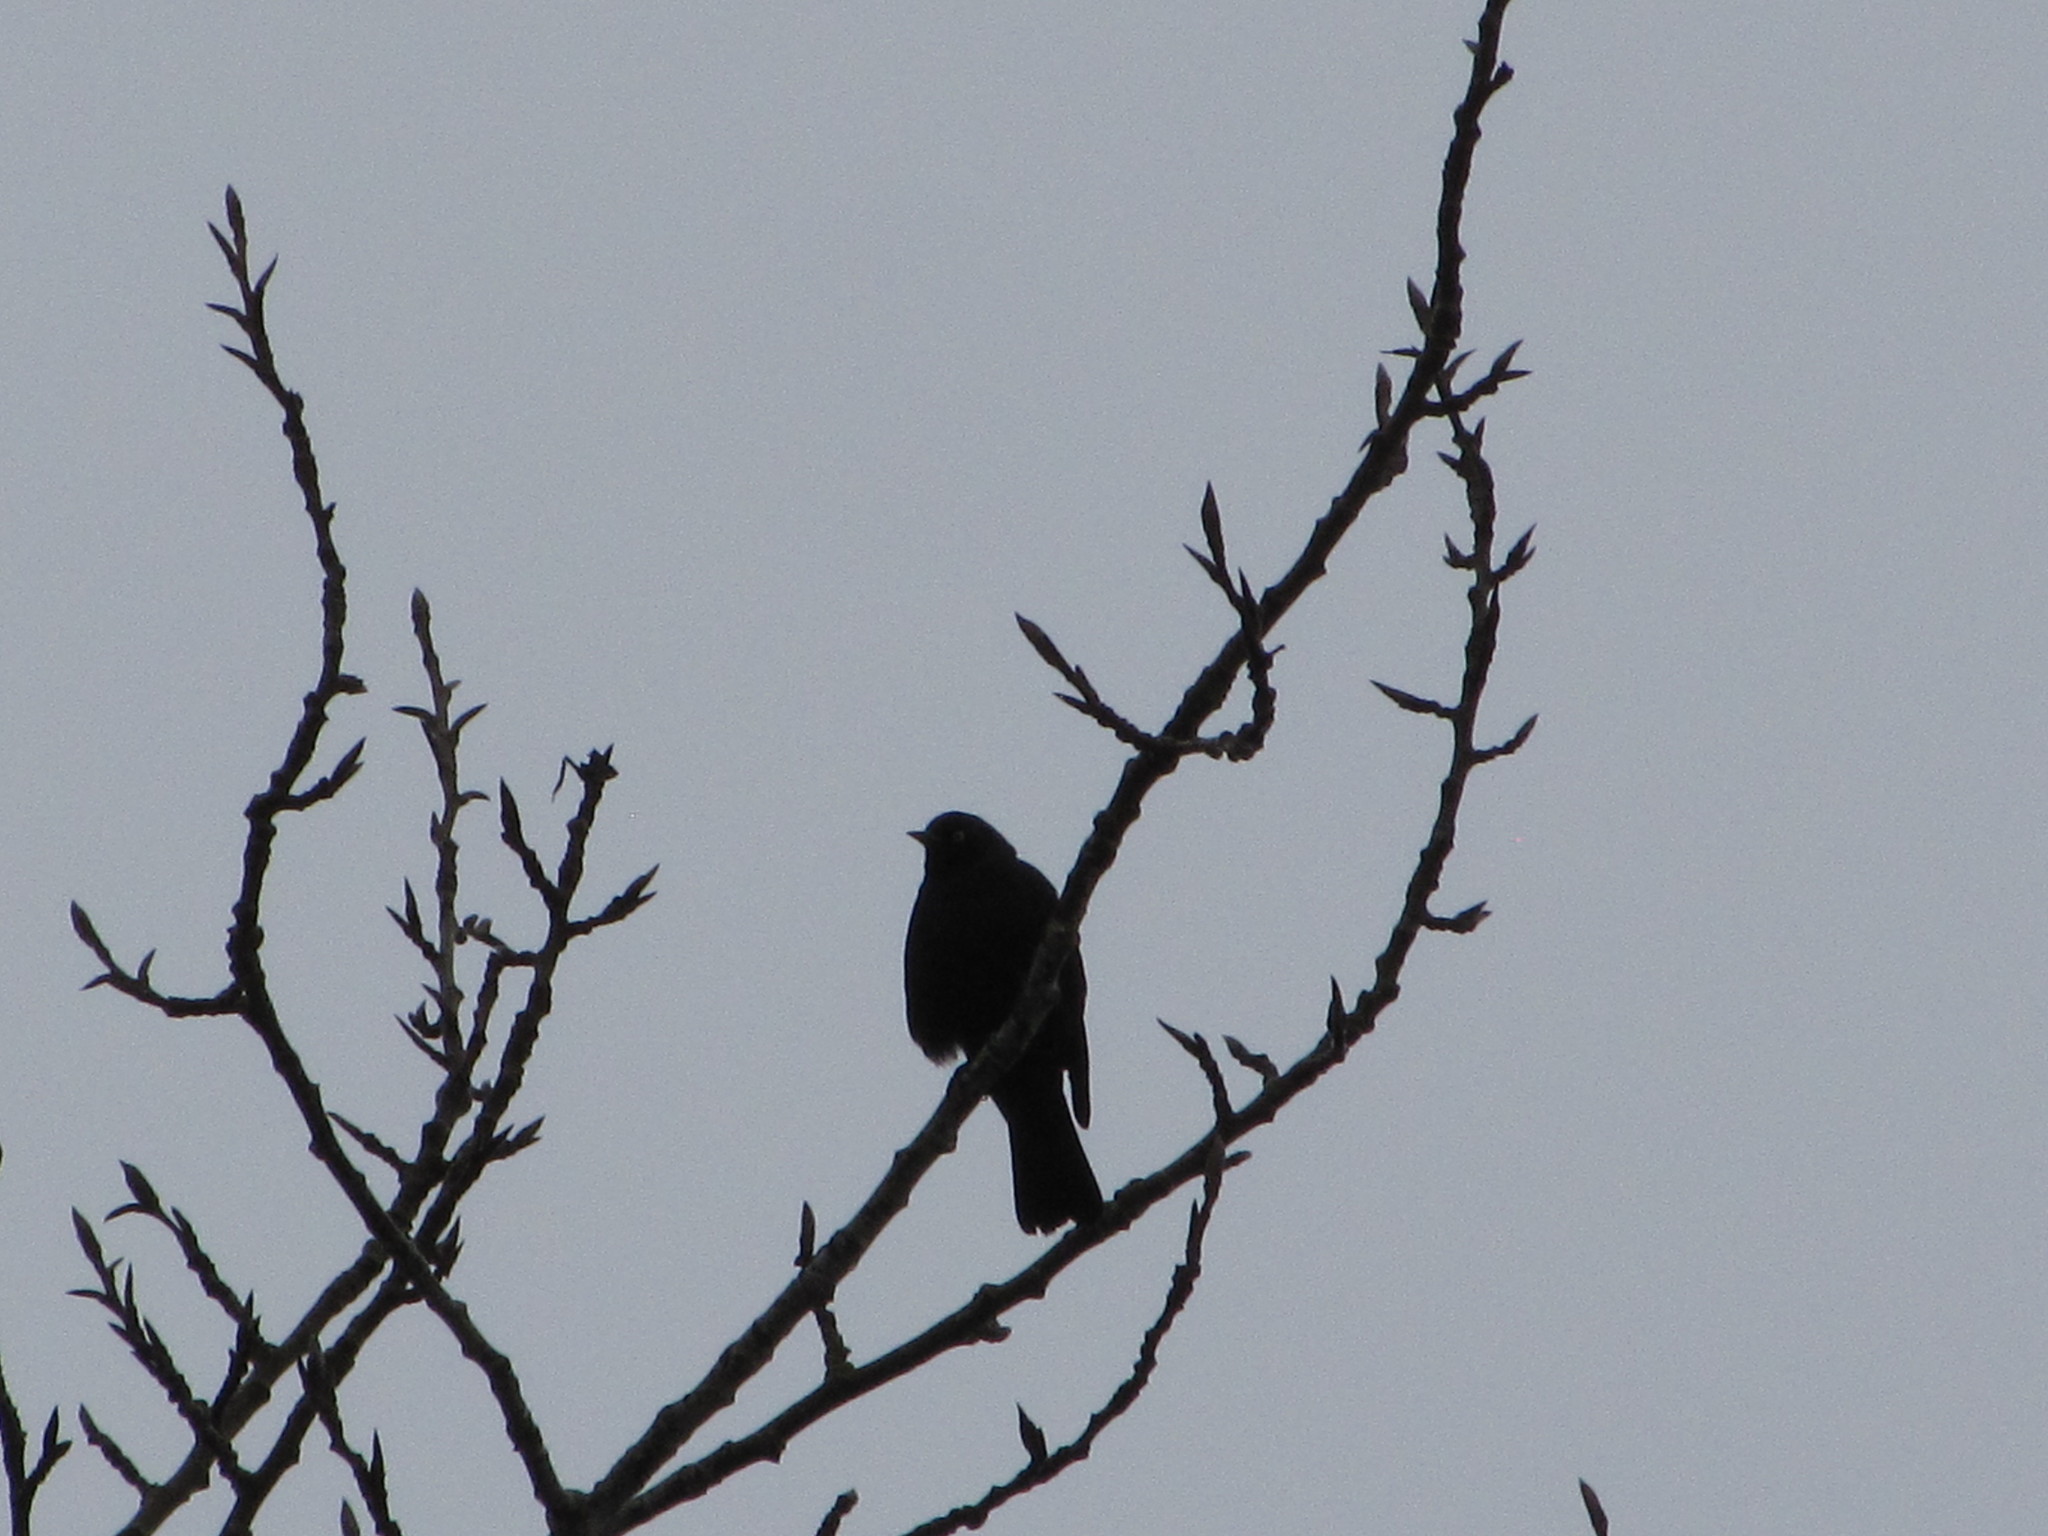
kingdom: Animalia
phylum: Chordata
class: Aves
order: Passeriformes
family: Icteridae
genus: Euphagus
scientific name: Euphagus cyanocephalus
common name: Brewer's blackbird
